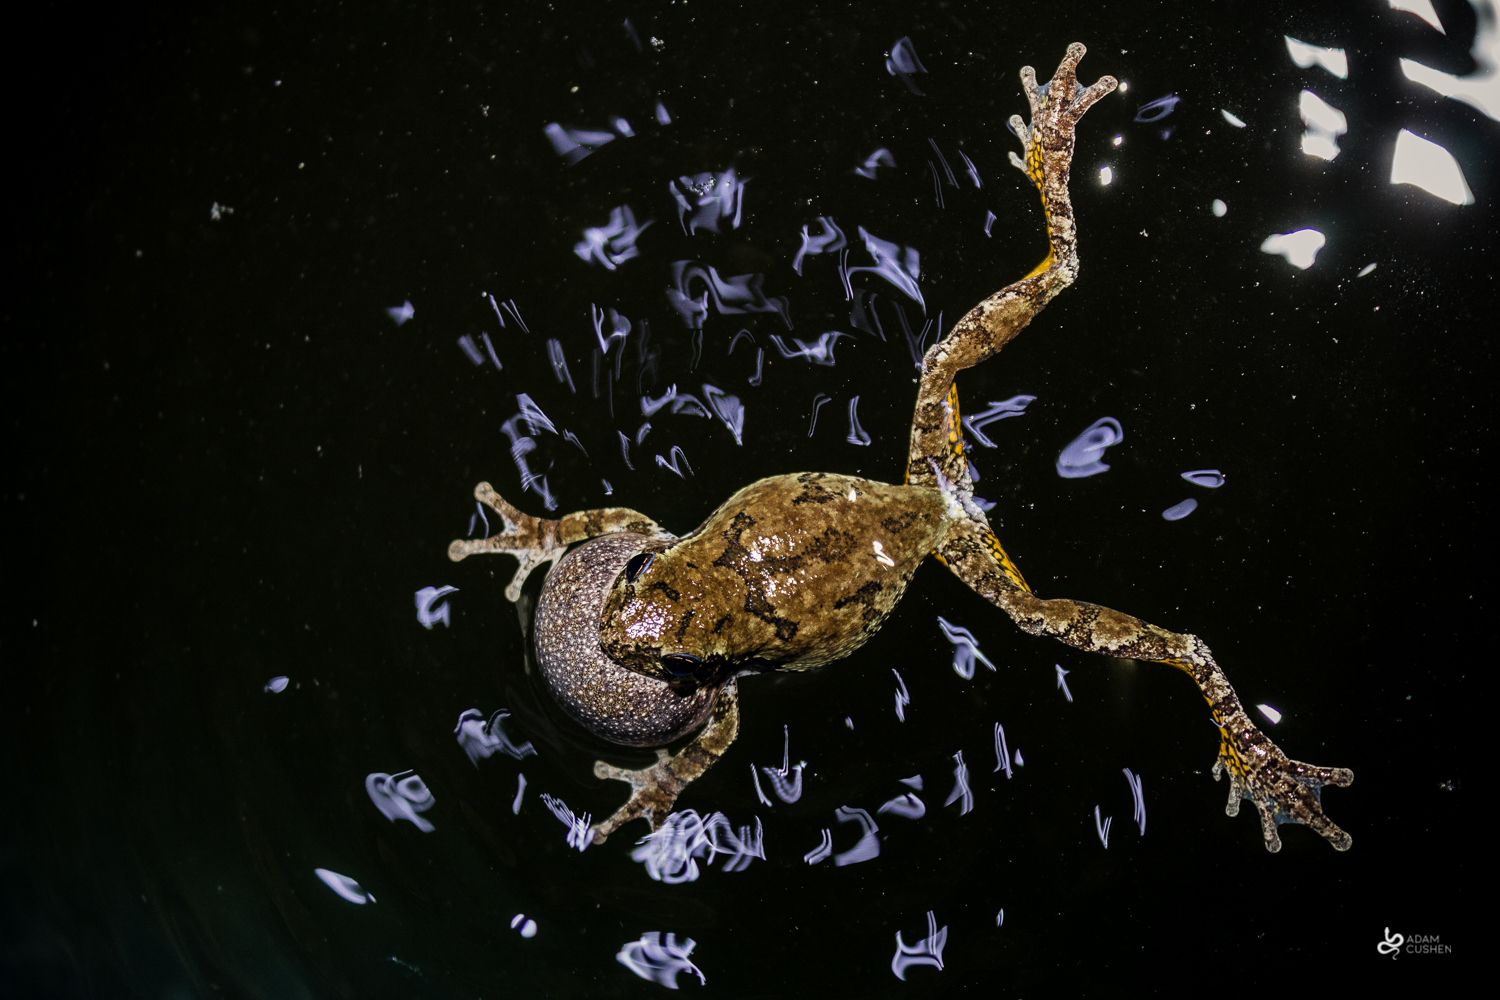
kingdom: Animalia
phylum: Chordata
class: Amphibia
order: Anura
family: Hylidae
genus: Dryophytes
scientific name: Dryophytes versicolor
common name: Gray treefrog
